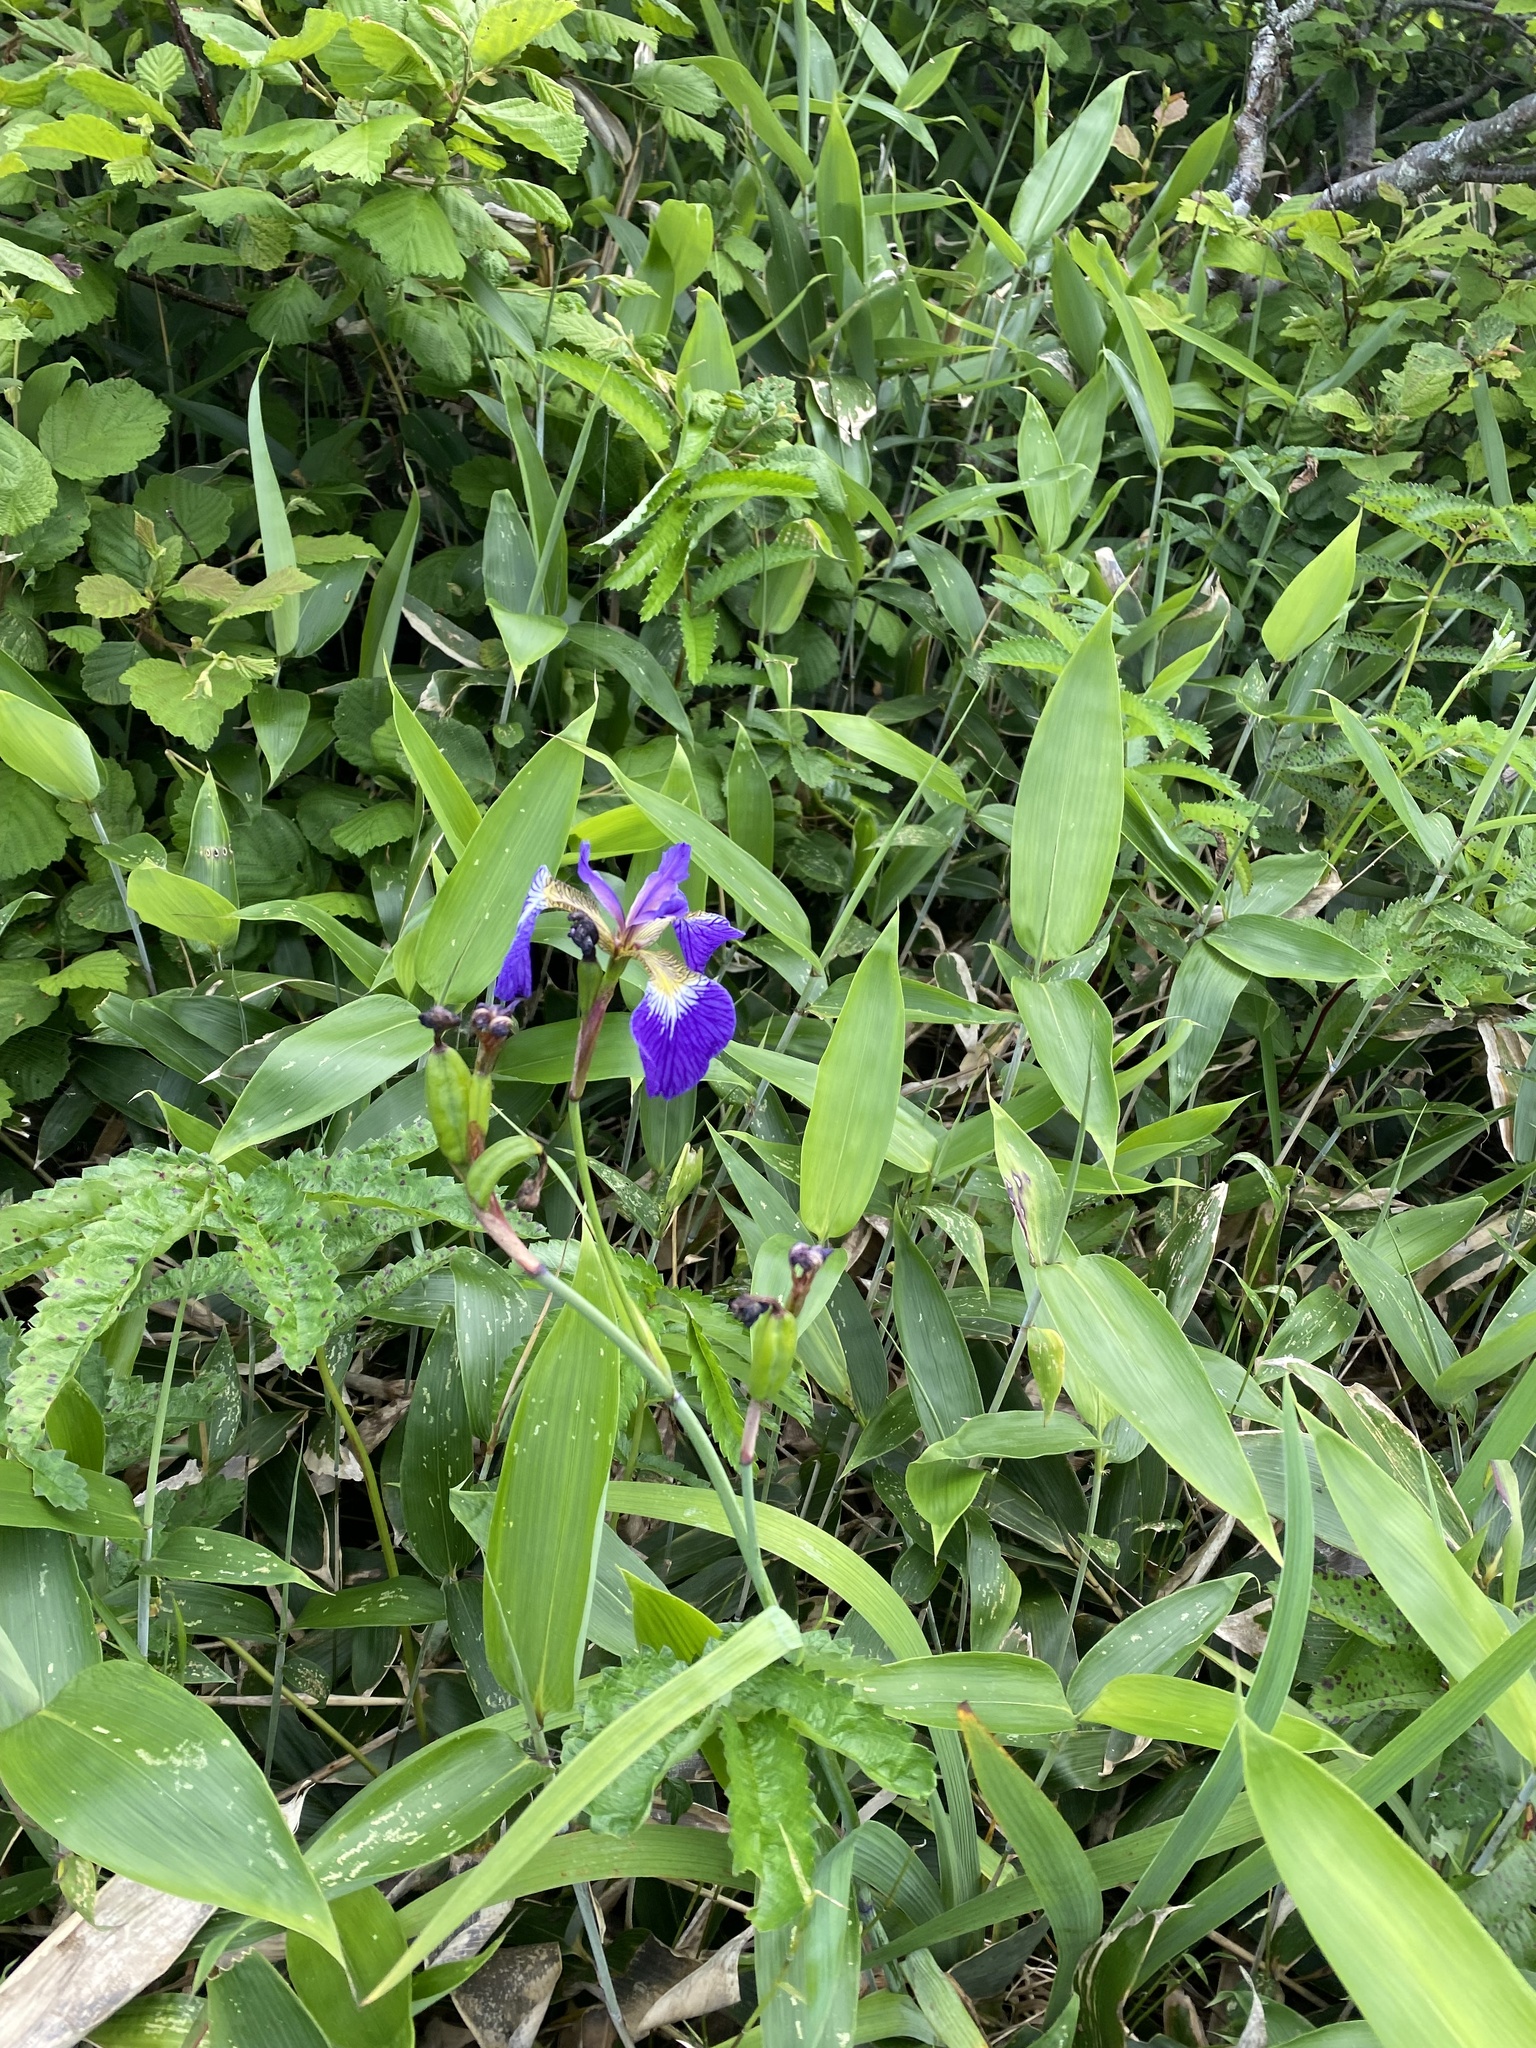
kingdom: Plantae
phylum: Tracheophyta
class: Liliopsida
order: Asparagales
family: Iridaceae
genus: Iris
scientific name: Iris setosa
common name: Arctic blue flag
